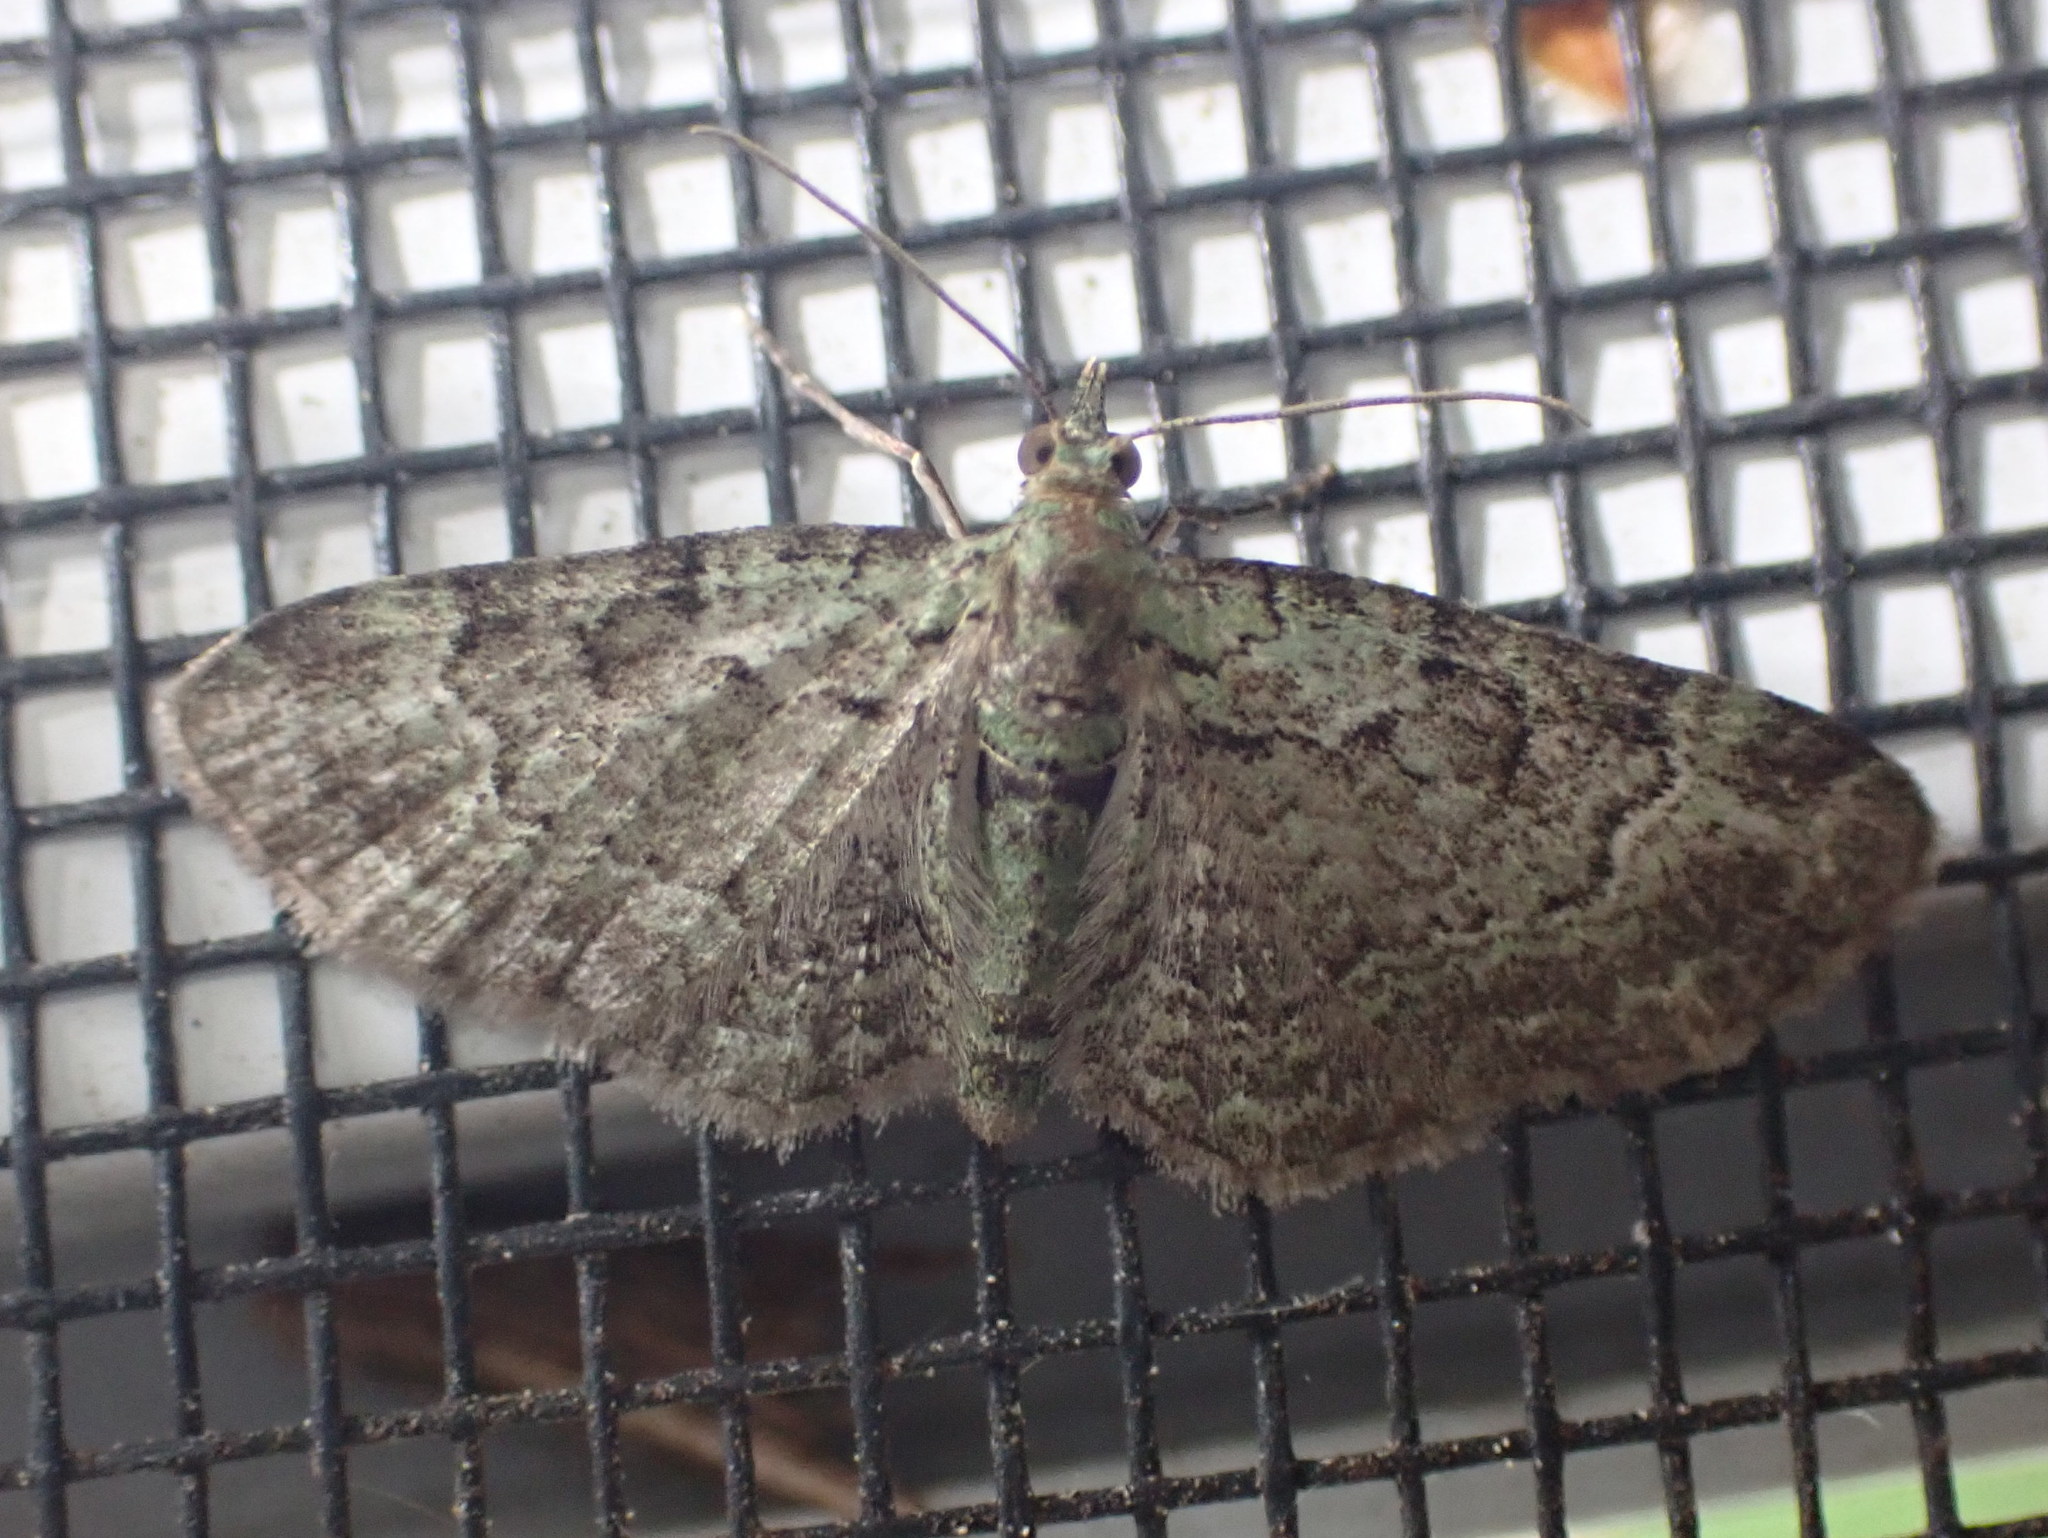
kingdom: Animalia
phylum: Arthropoda
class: Insecta
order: Lepidoptera
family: Geometridae
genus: Pasiphila
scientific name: Pasiphila rectangulata
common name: Green pug
